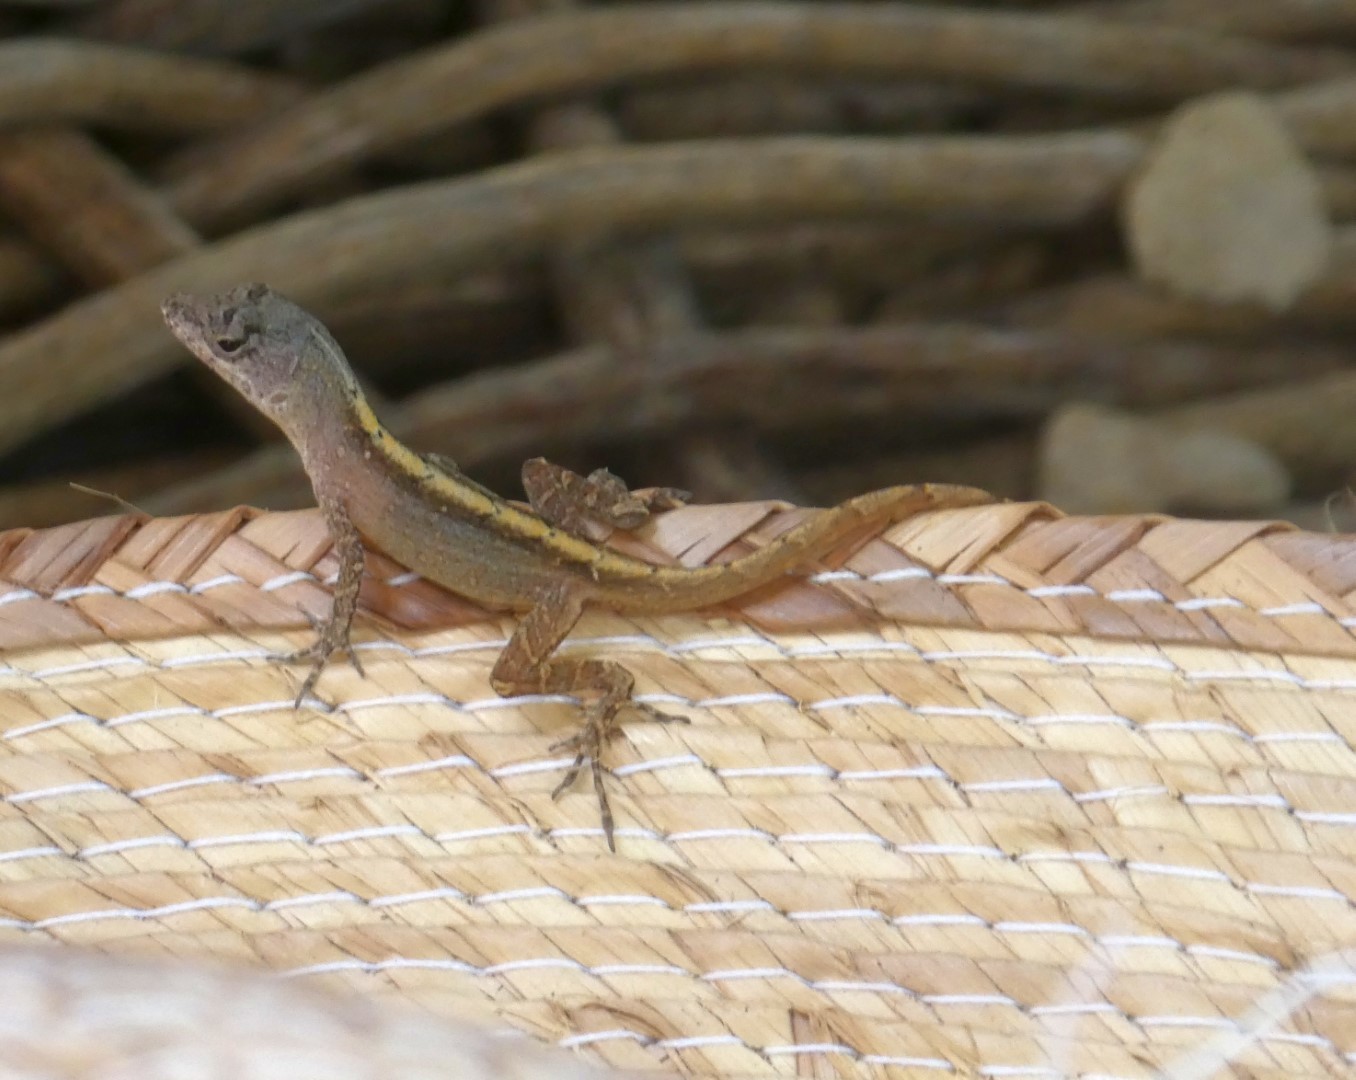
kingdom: Animalia
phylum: Chordata
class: Squamata
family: Dactyloidae
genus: Anolis
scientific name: Anolis sagrei
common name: Brown anole
